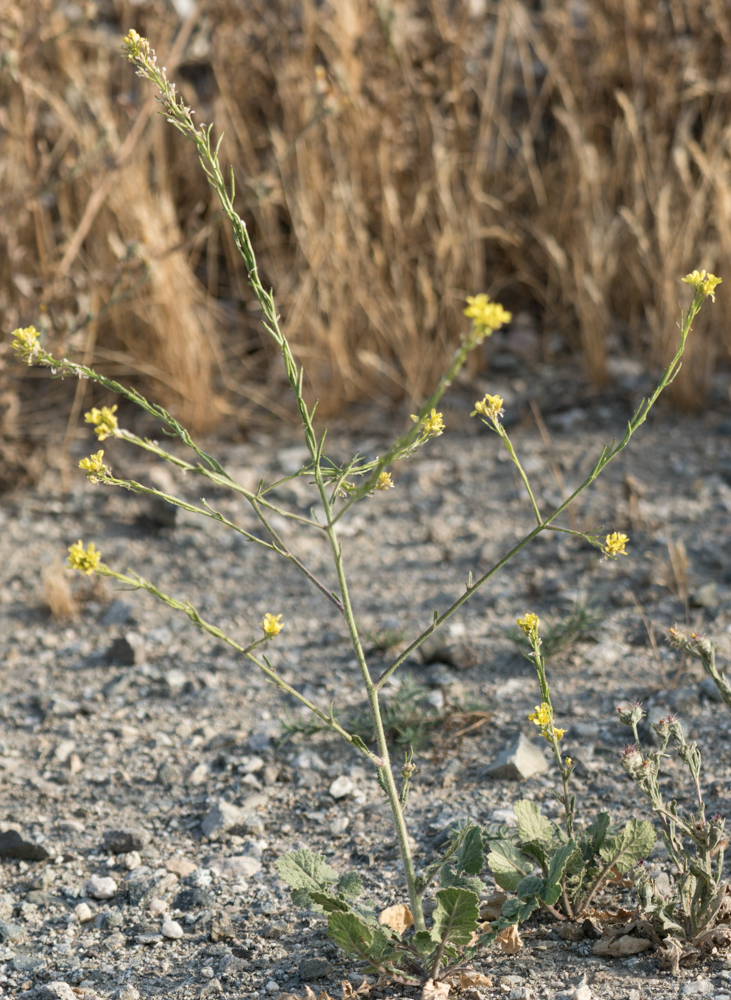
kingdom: Plantae
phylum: Tracheophyta
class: Magnoliopsida
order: Brassicales
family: Brassicaceae
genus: Hirschfeldia
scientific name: Hirschfeldia incana
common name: Hoary mustard
